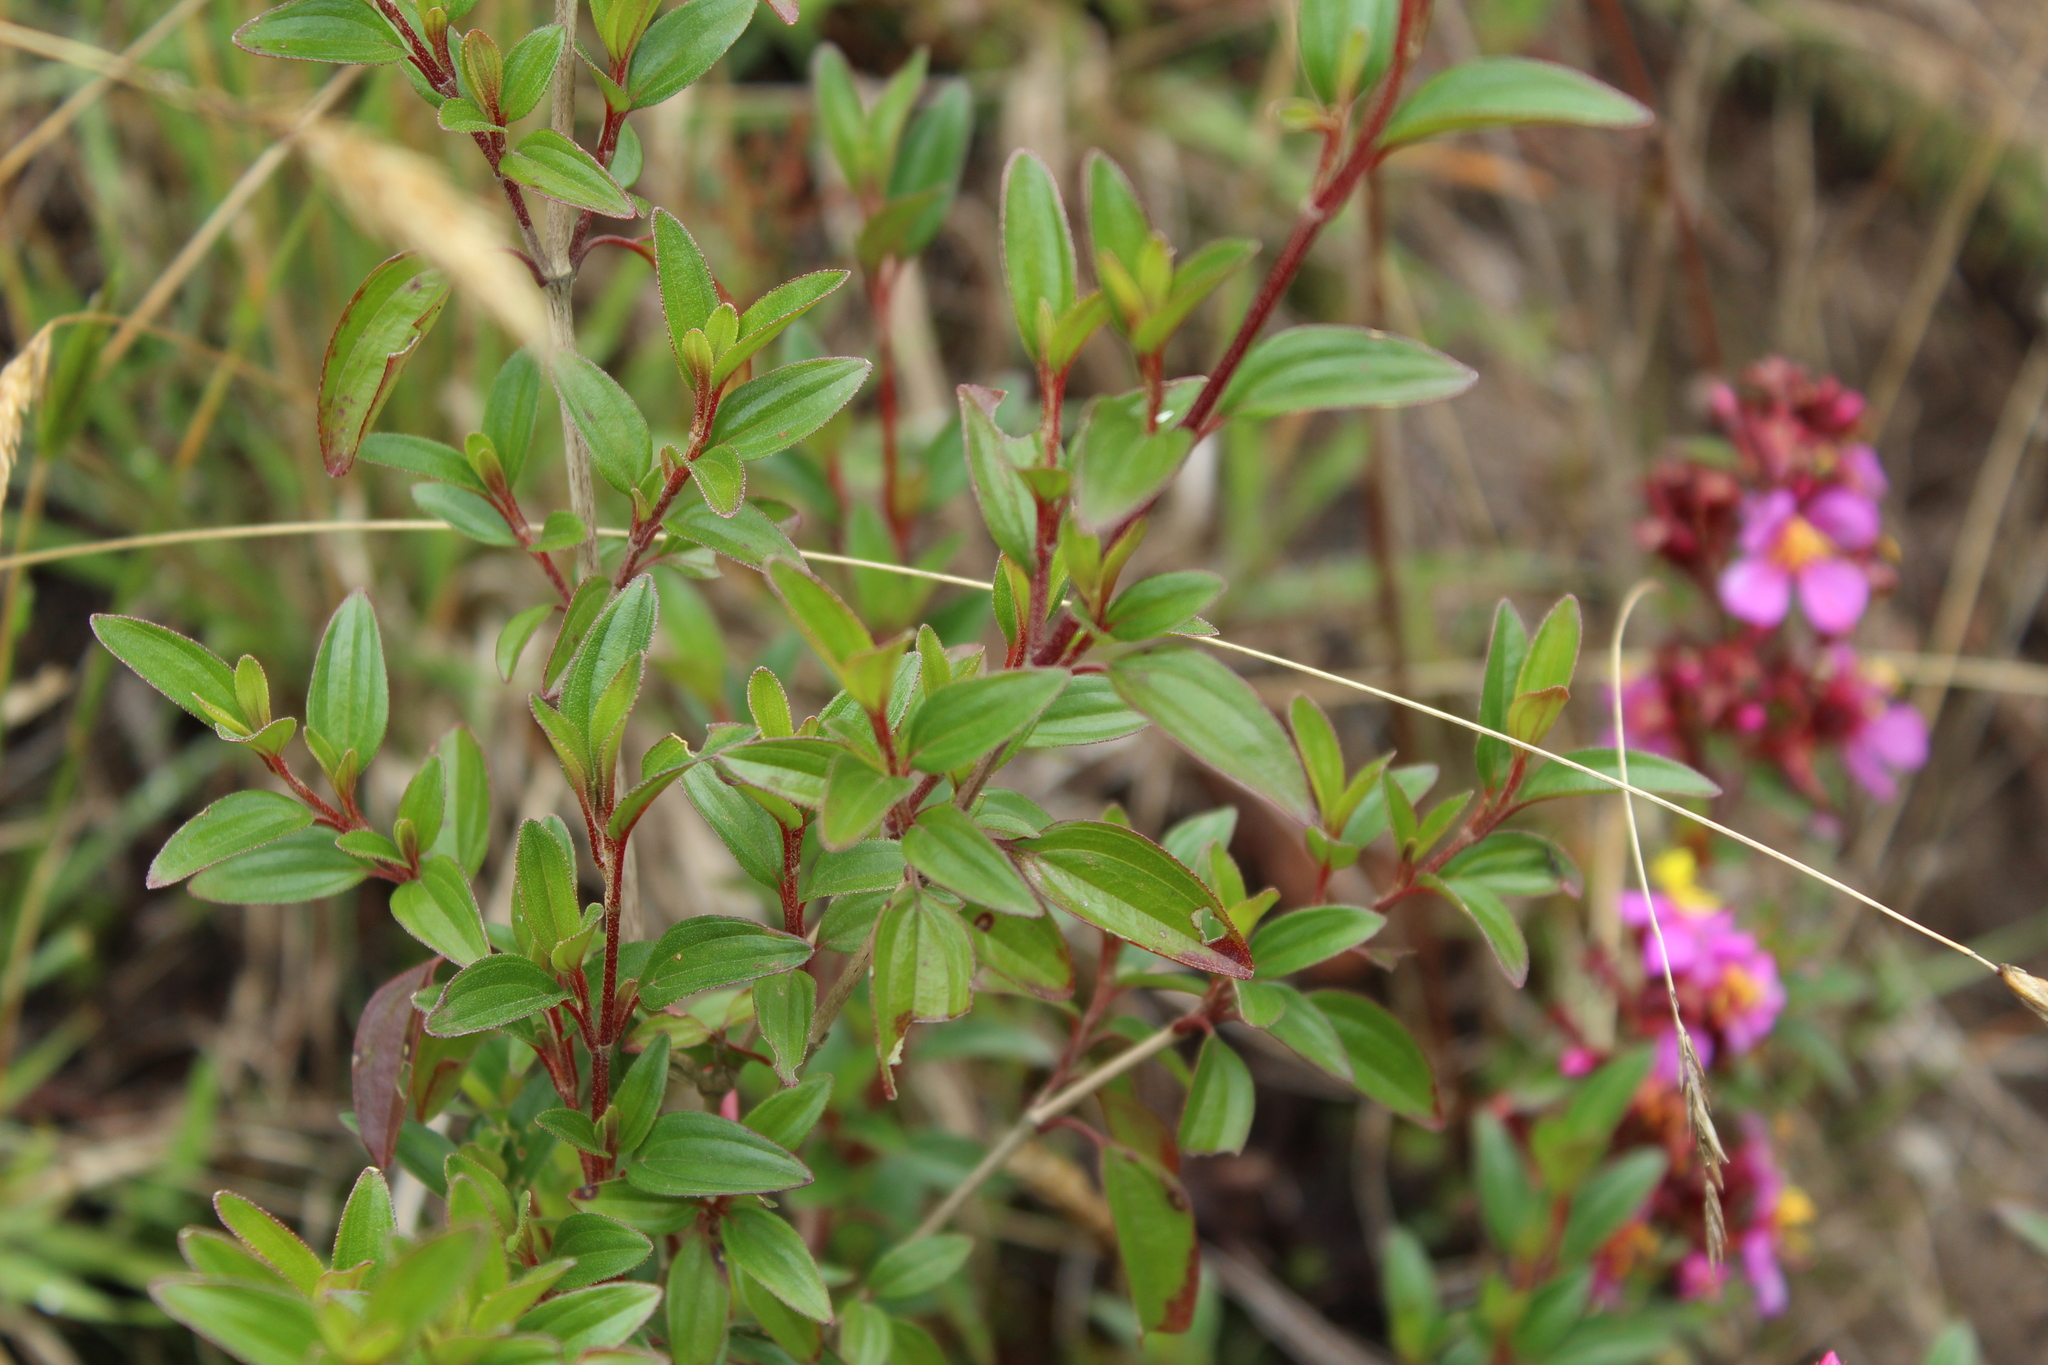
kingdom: Plantae
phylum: Tracheophyta
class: Magnoliopsida
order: Myrtales
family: Melastomataceae
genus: Monochaetum
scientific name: Monochaetum myrtoideum
